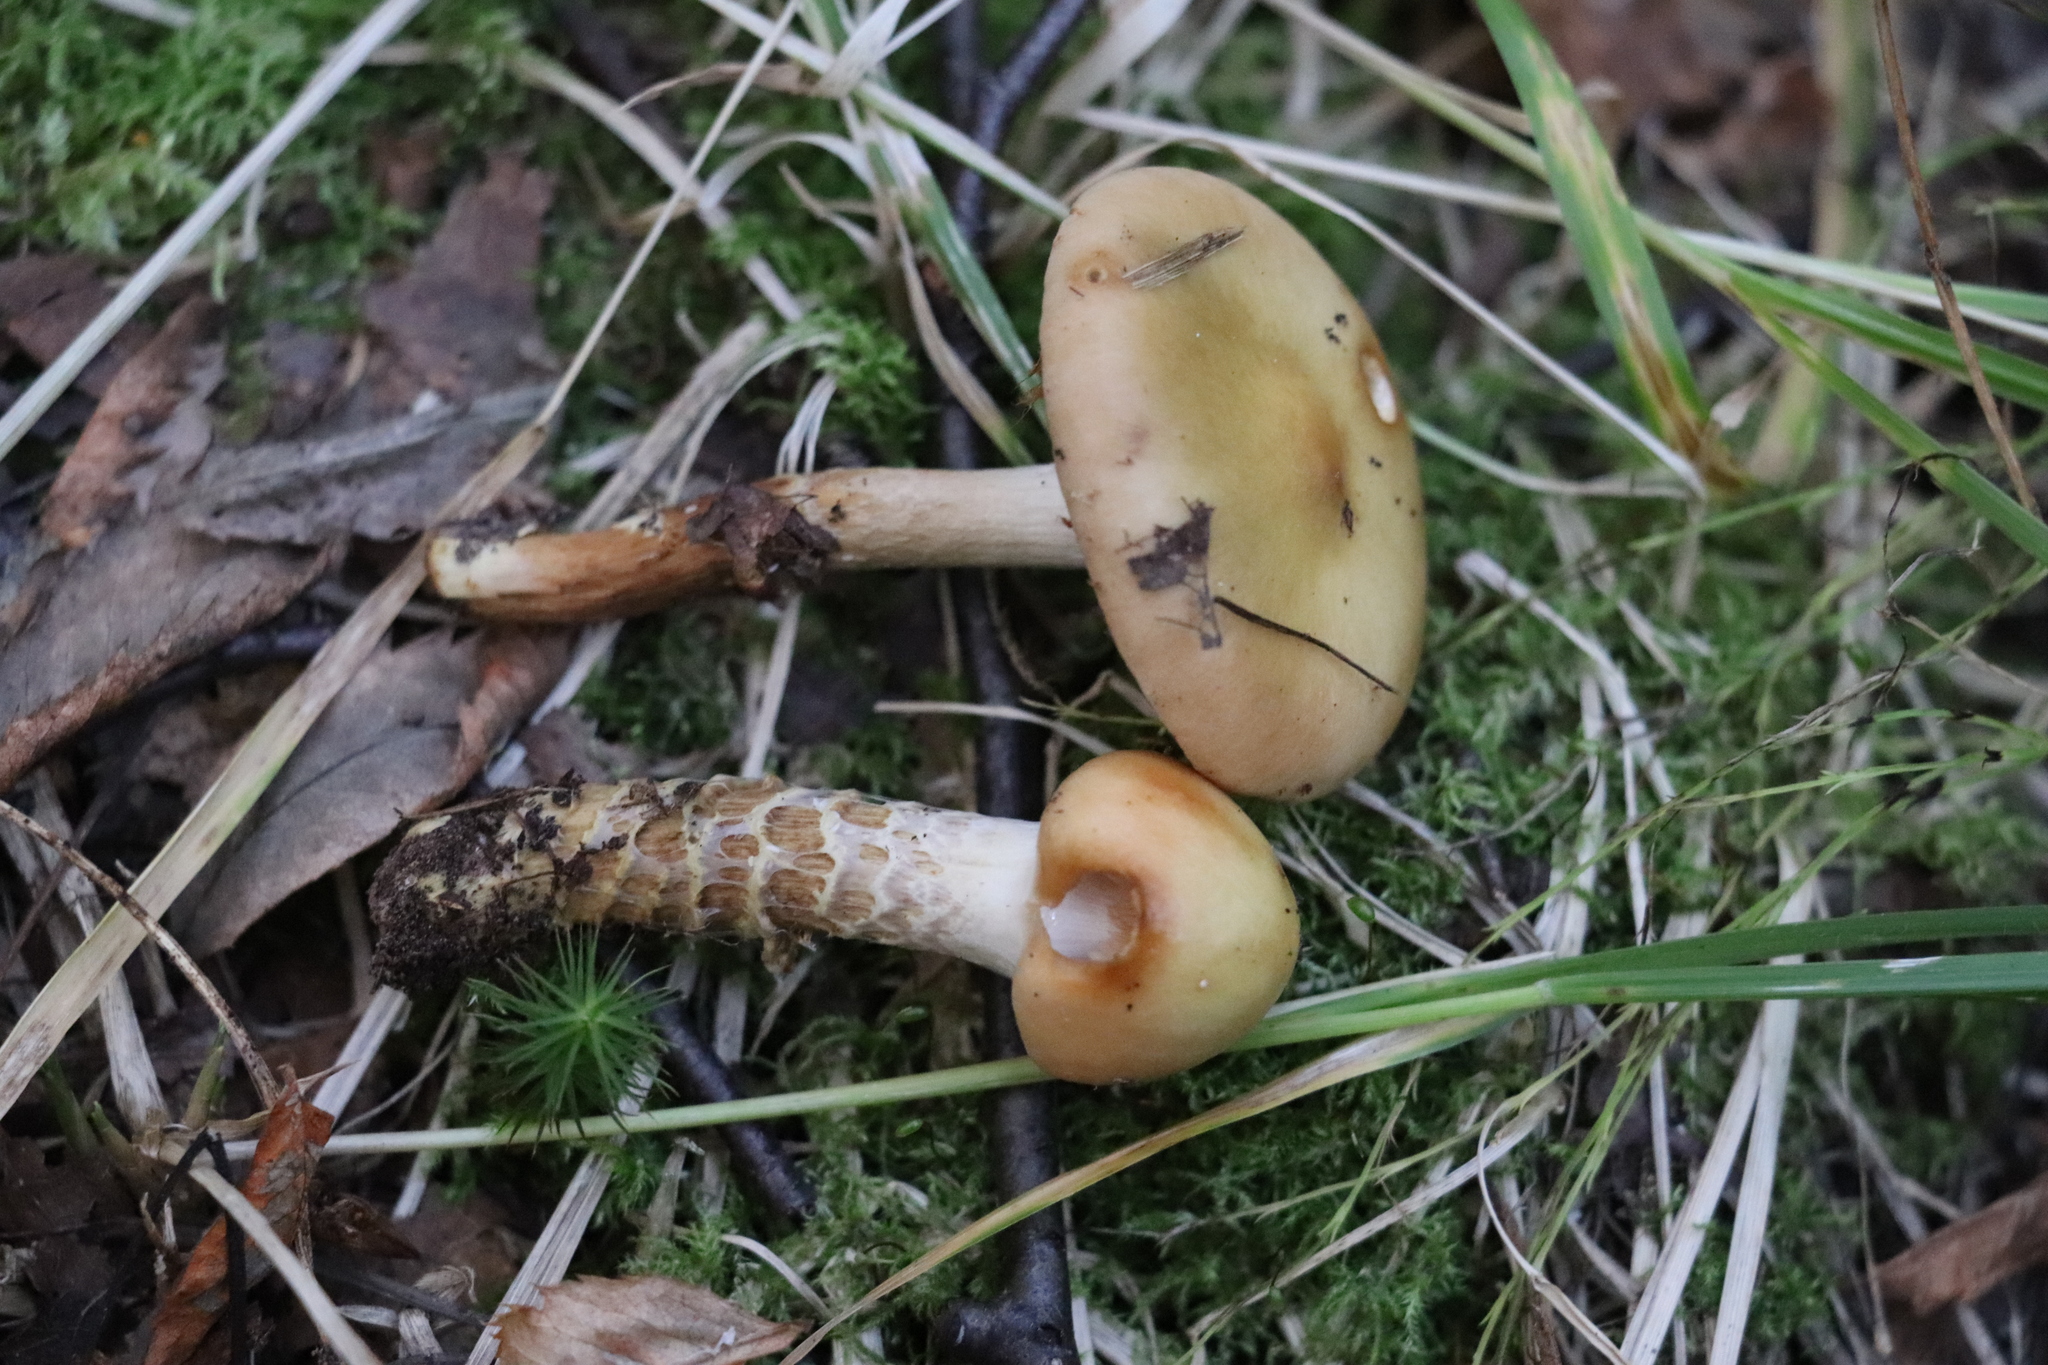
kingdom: Fungi
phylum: Basidiomycota
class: Agaricomycetes
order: Agaricales
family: Cortinariaceae
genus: Cortinarius
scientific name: Cortinarius trivialis
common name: Girdled webcap
